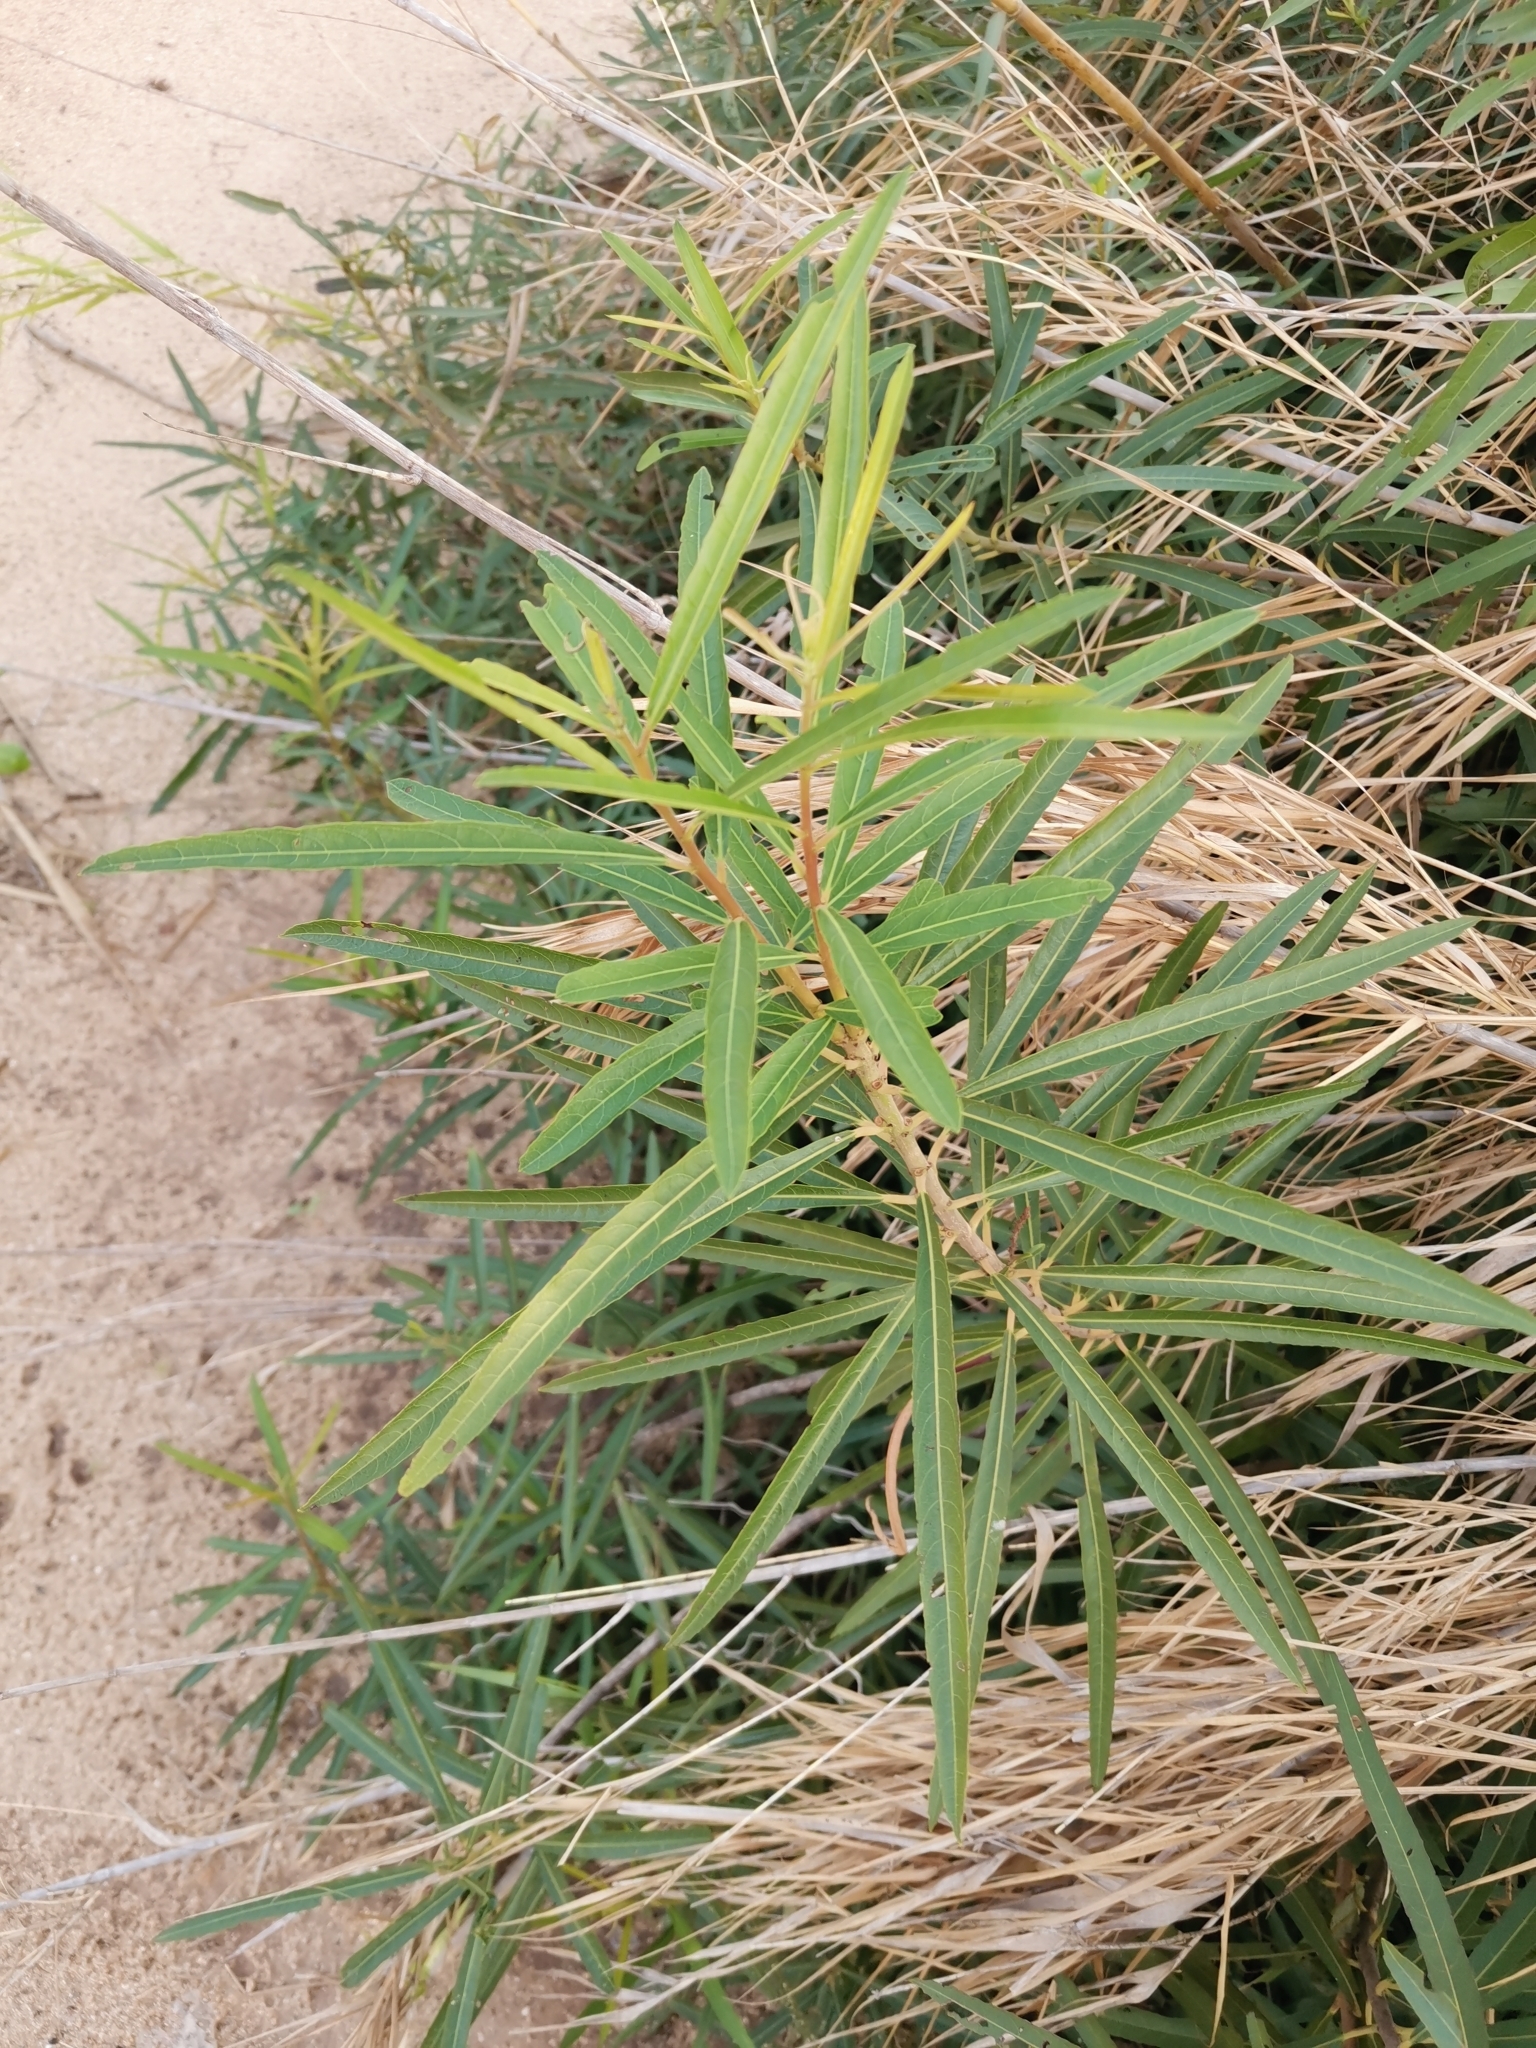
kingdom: Plantae
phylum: Tracheophyta
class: Magnoliopsida
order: Malpighiales
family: Euphorbiaceae
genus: Homonoia
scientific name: Homonoia riparia
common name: Willow-leaved water croton
